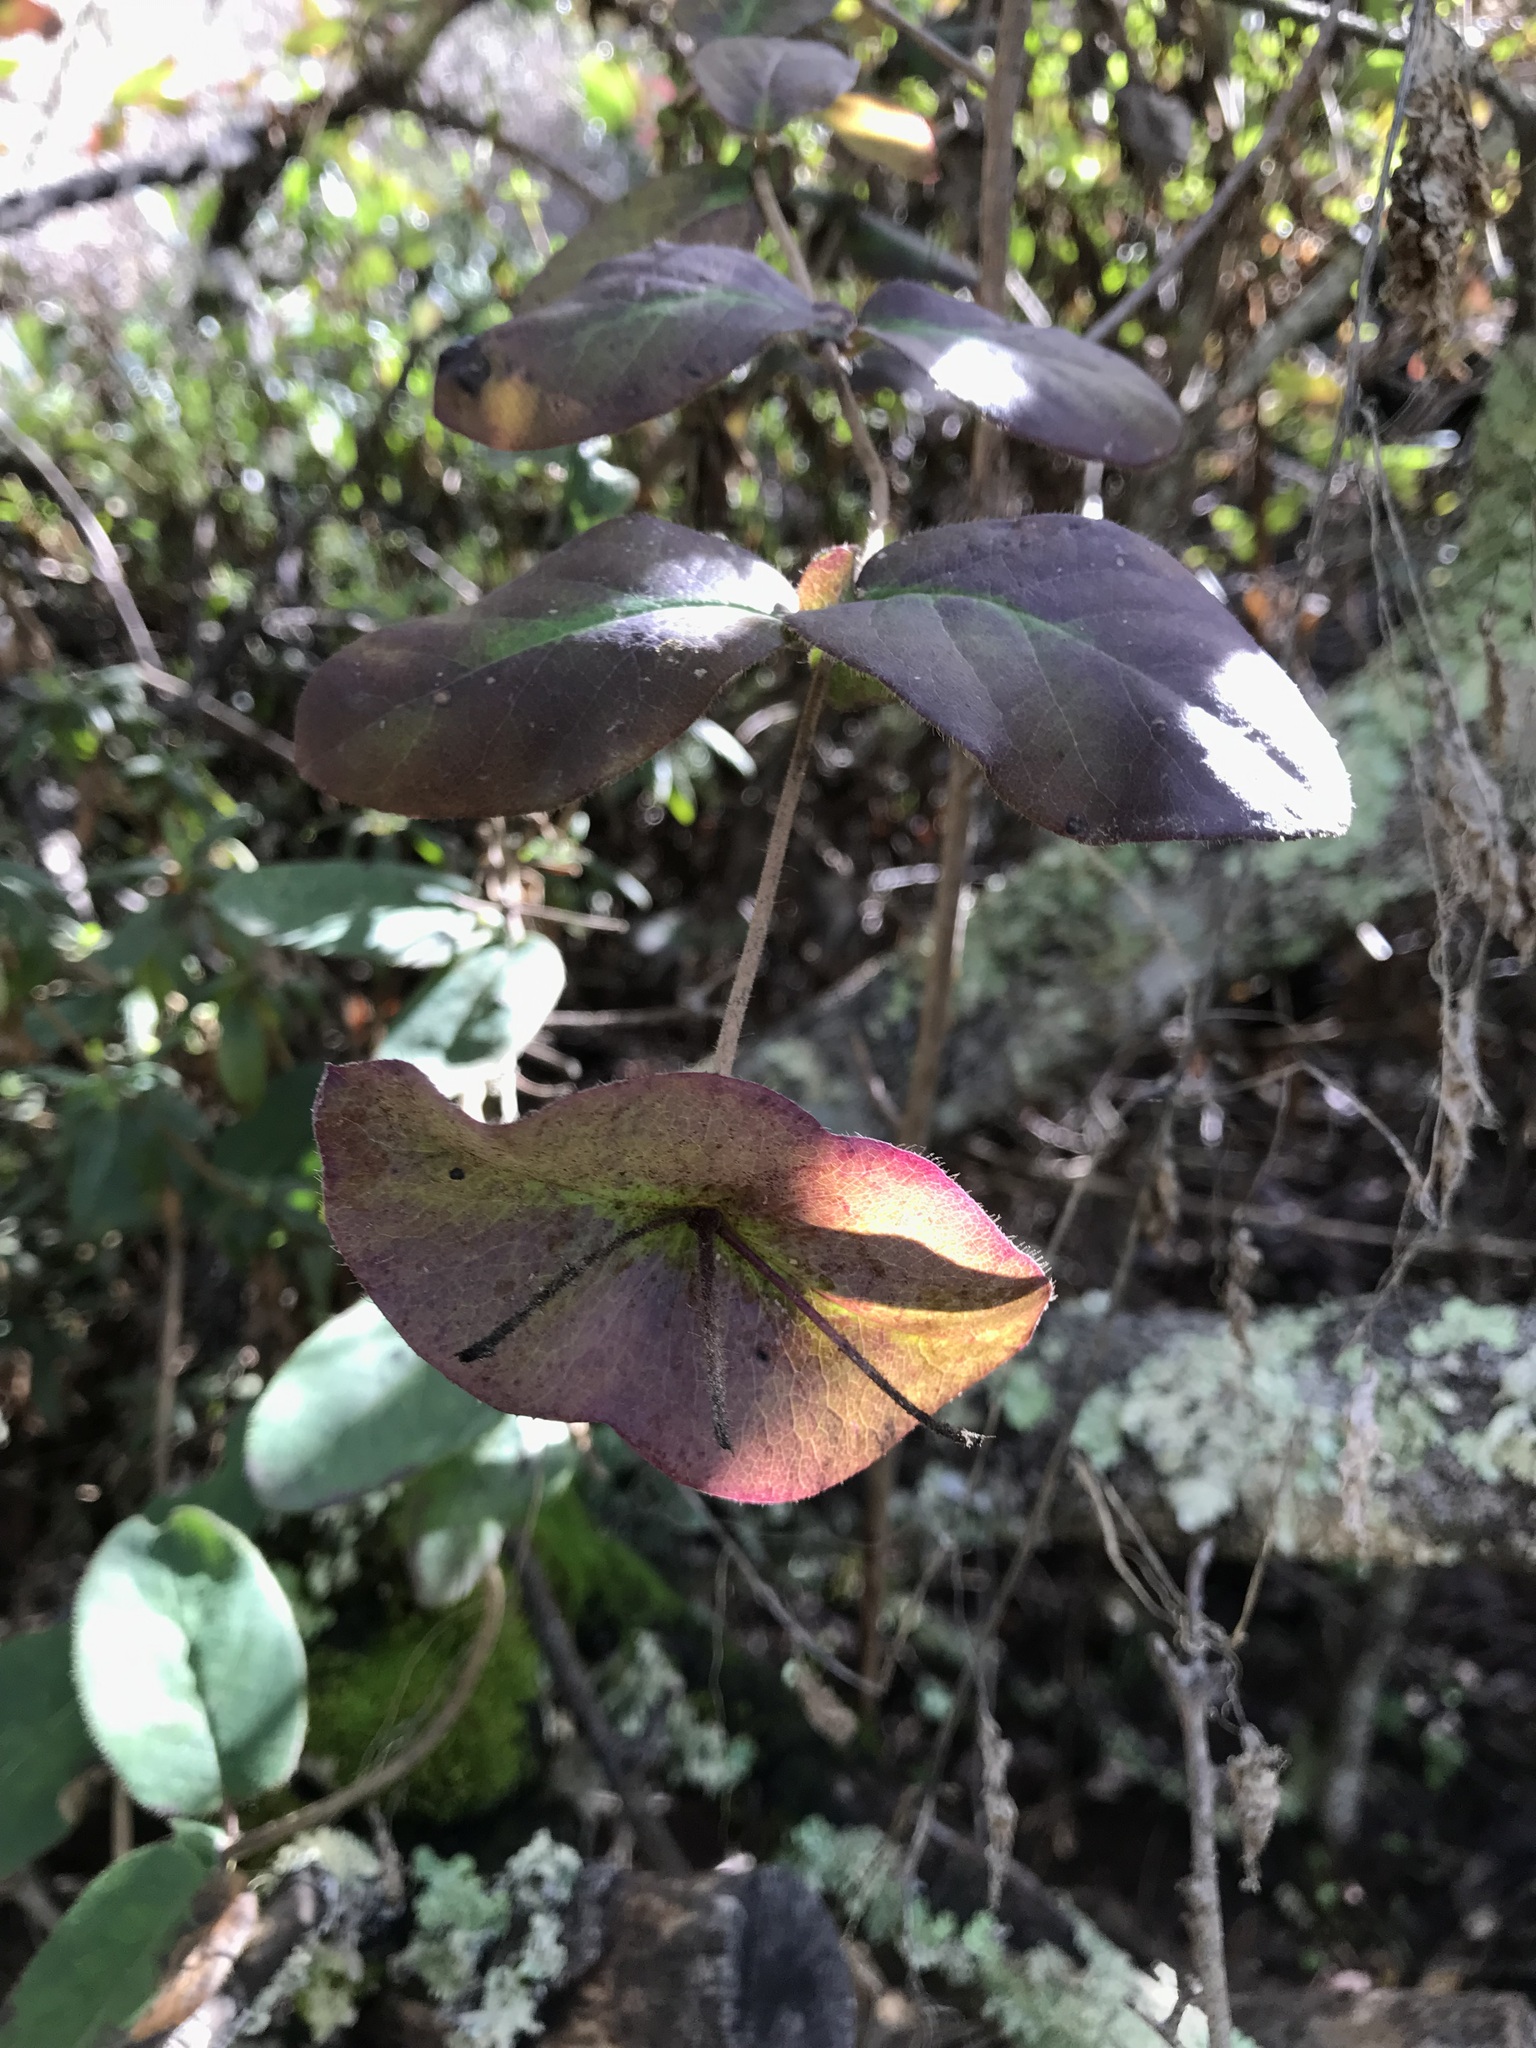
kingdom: Plantae
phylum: Tracheophyta
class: Magnoliopsida
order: Dipsacales
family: Caprifoliaceae
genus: Lonicera
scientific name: Lonicera hispidula
